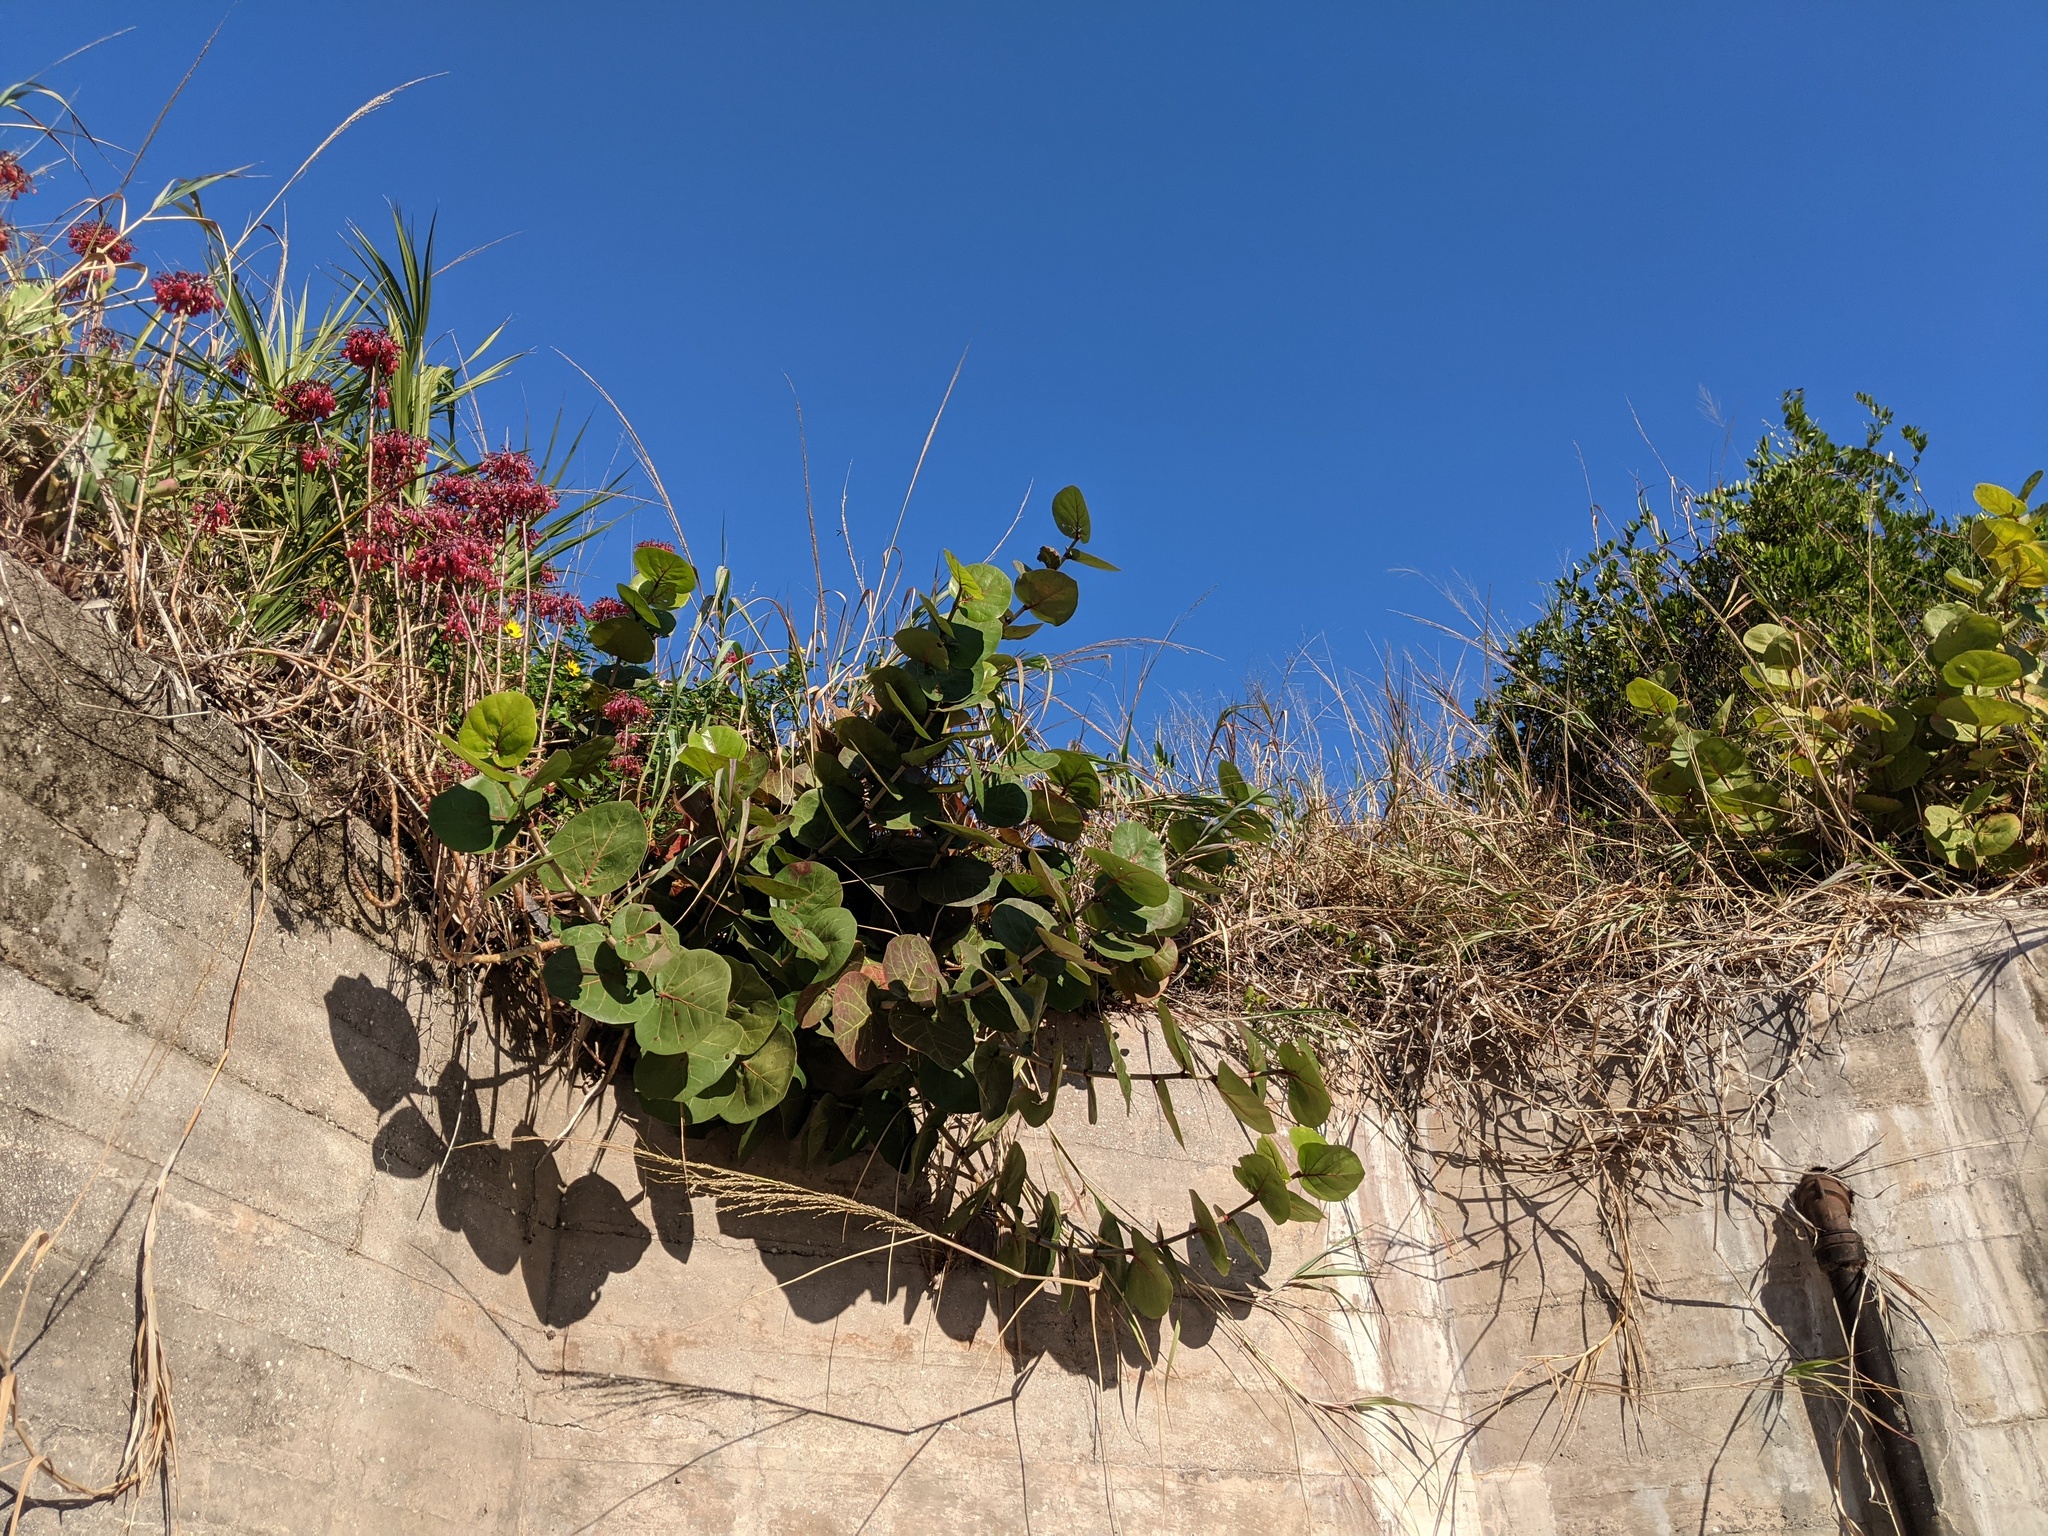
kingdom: Plantae
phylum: Tracheophyta
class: Magnoliopsida
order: Saxifragales
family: Crassulaceae
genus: Kalanchoe
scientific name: Kalanchoe houghtonii
